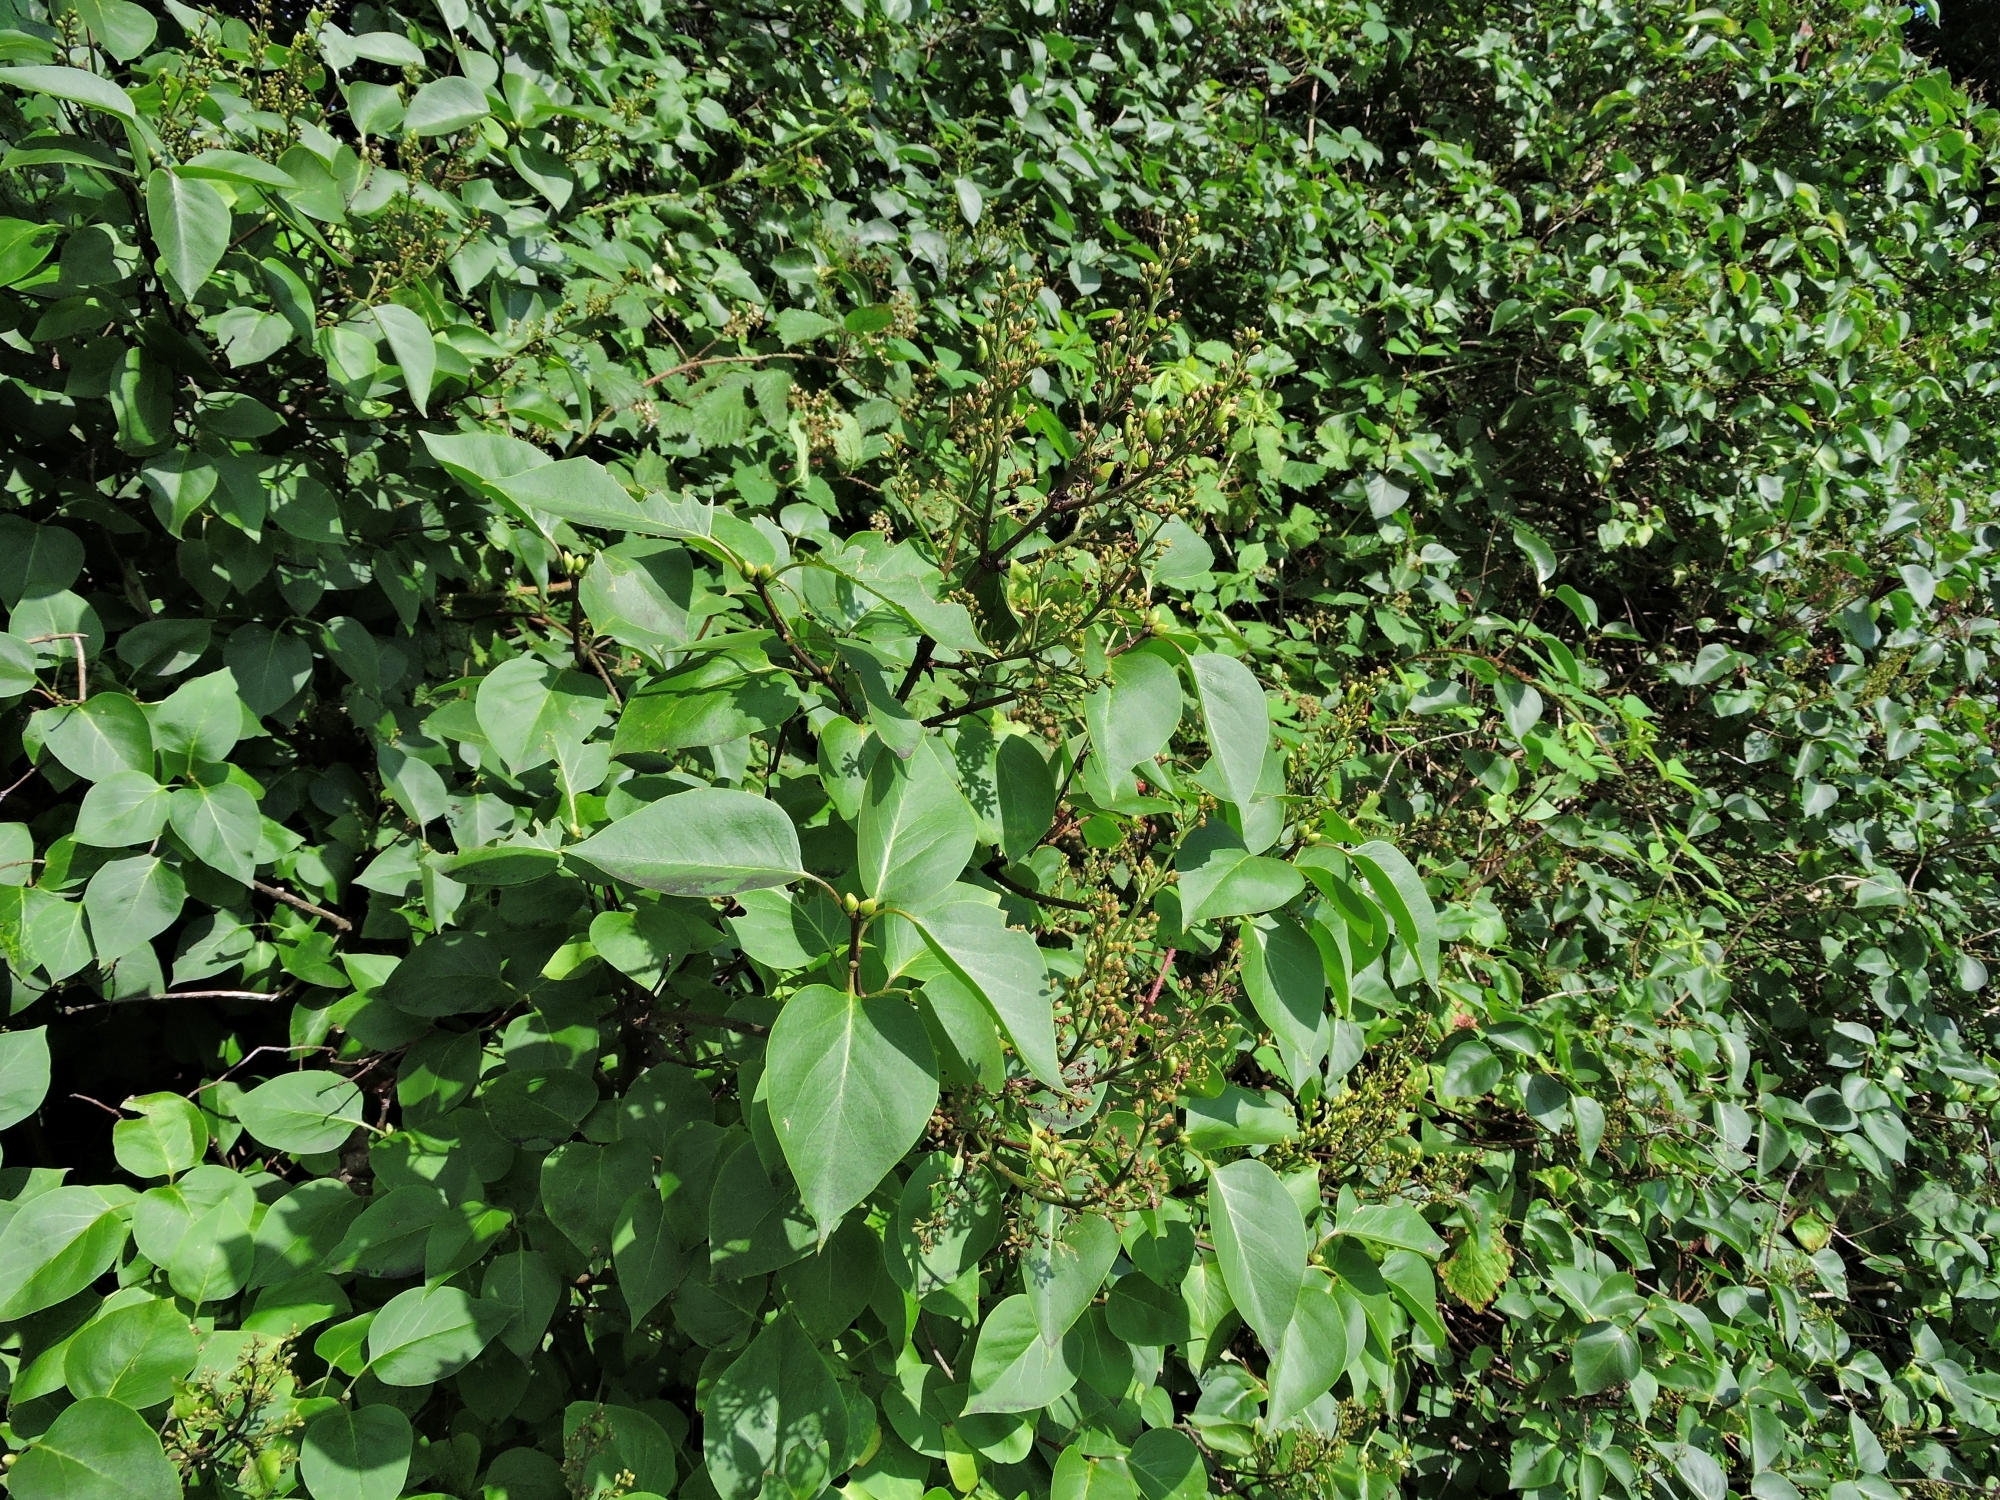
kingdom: Plantae
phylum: Tracheophyta
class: Magnoliopsida
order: Lamiales
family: Oleaceae
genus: Syringa
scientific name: Syringa vulgaris
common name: Common lilac
